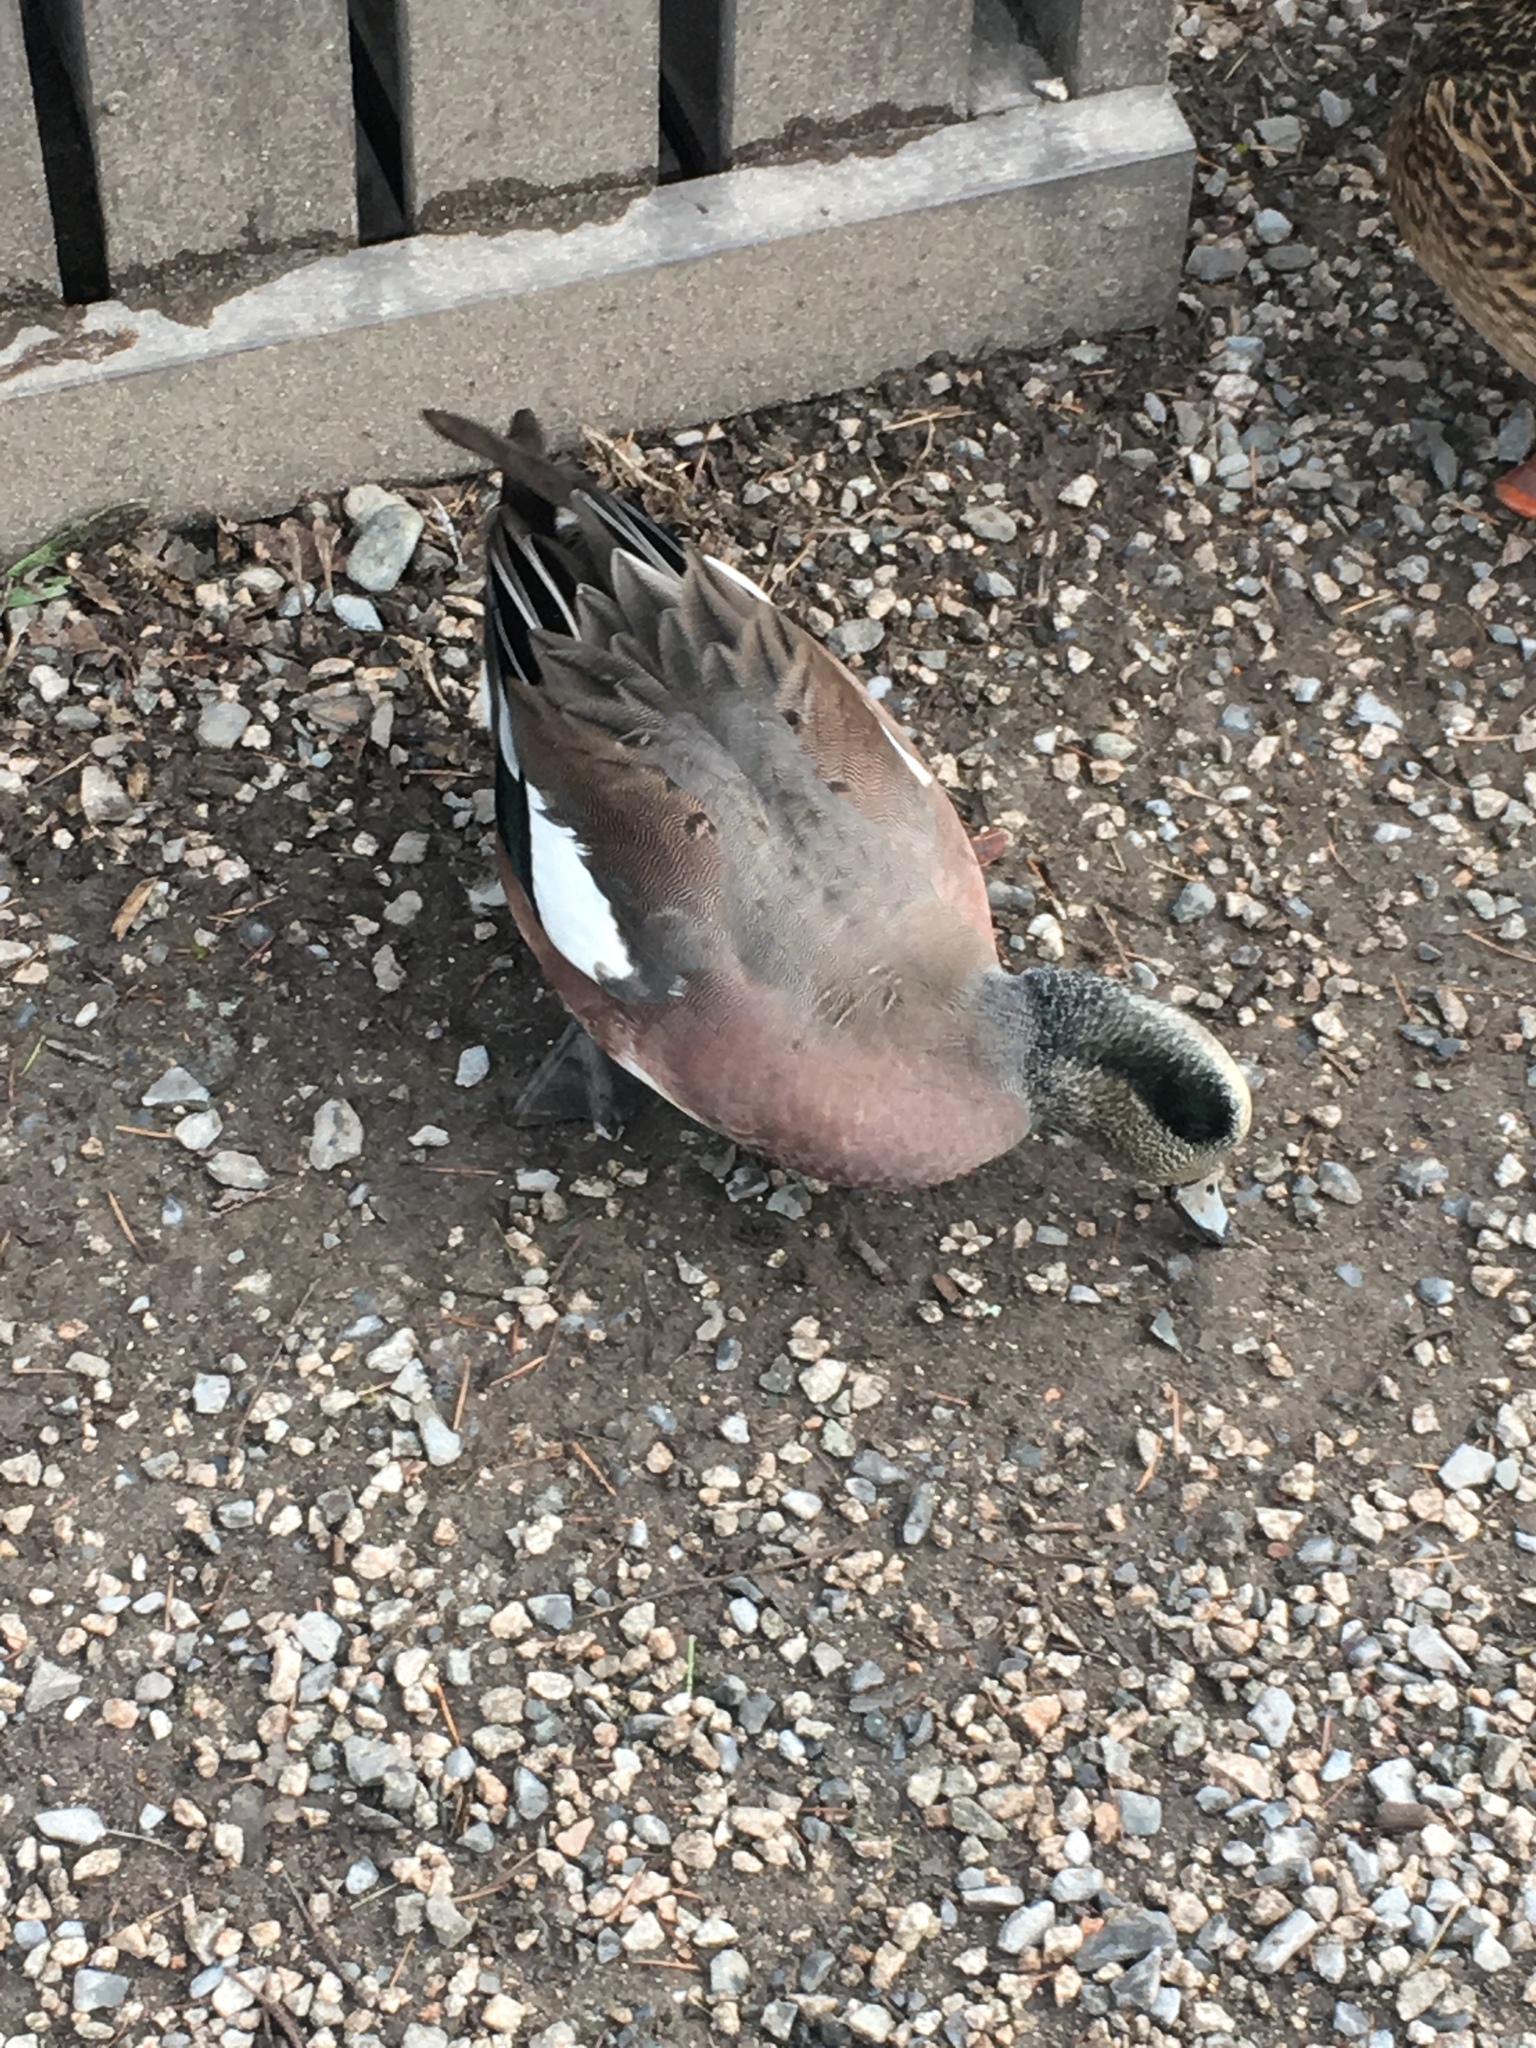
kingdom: Animalia
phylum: Chordata
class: Aves
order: Anseriformes
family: Anatidae
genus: Mareca
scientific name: Mareca americana
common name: American wigeon
